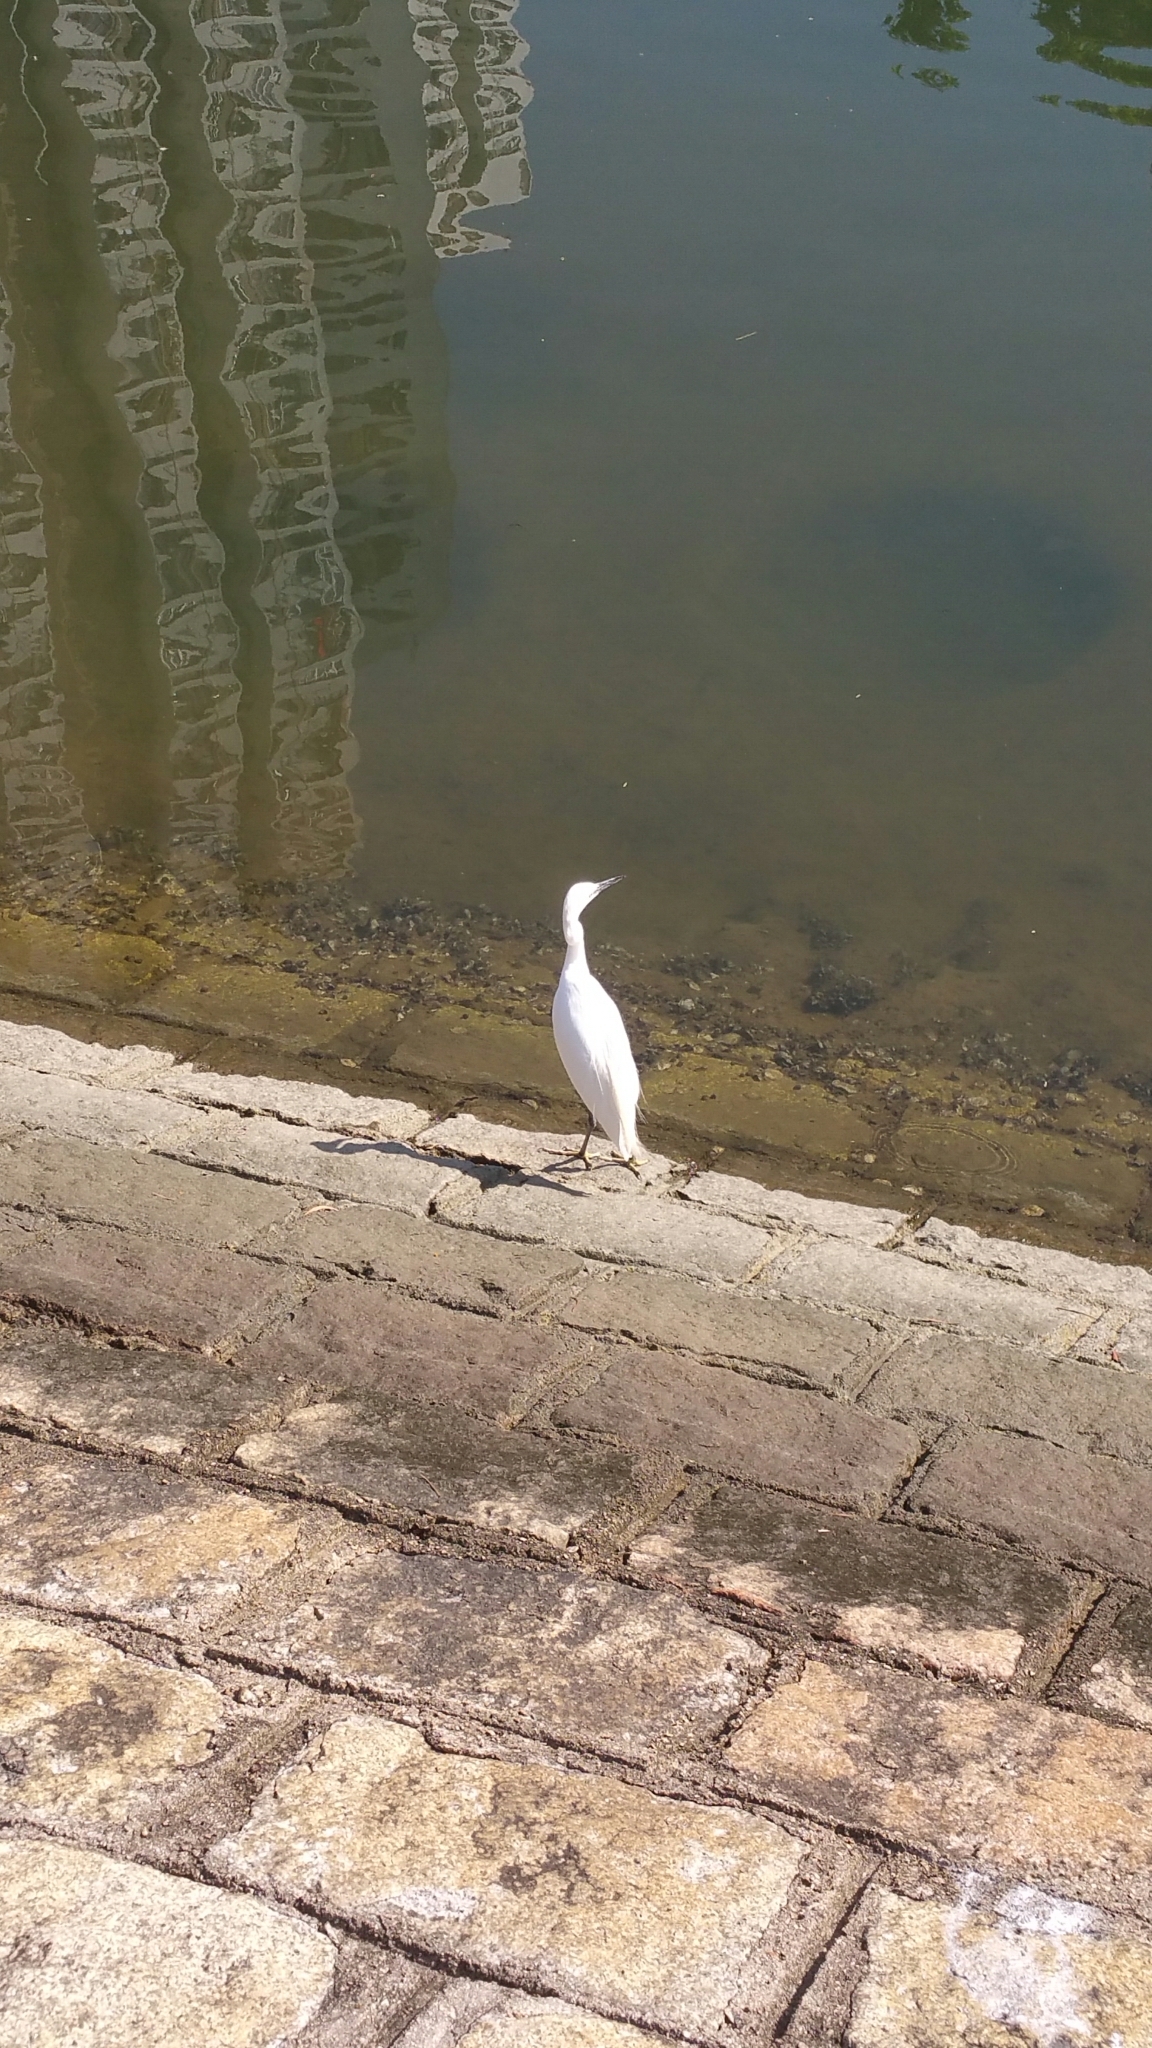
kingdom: Animalia
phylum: Chordata
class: Aves
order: Pelecaniformes
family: Ardeidae
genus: Egretta
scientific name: Egretta garzetta
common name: Little egret
